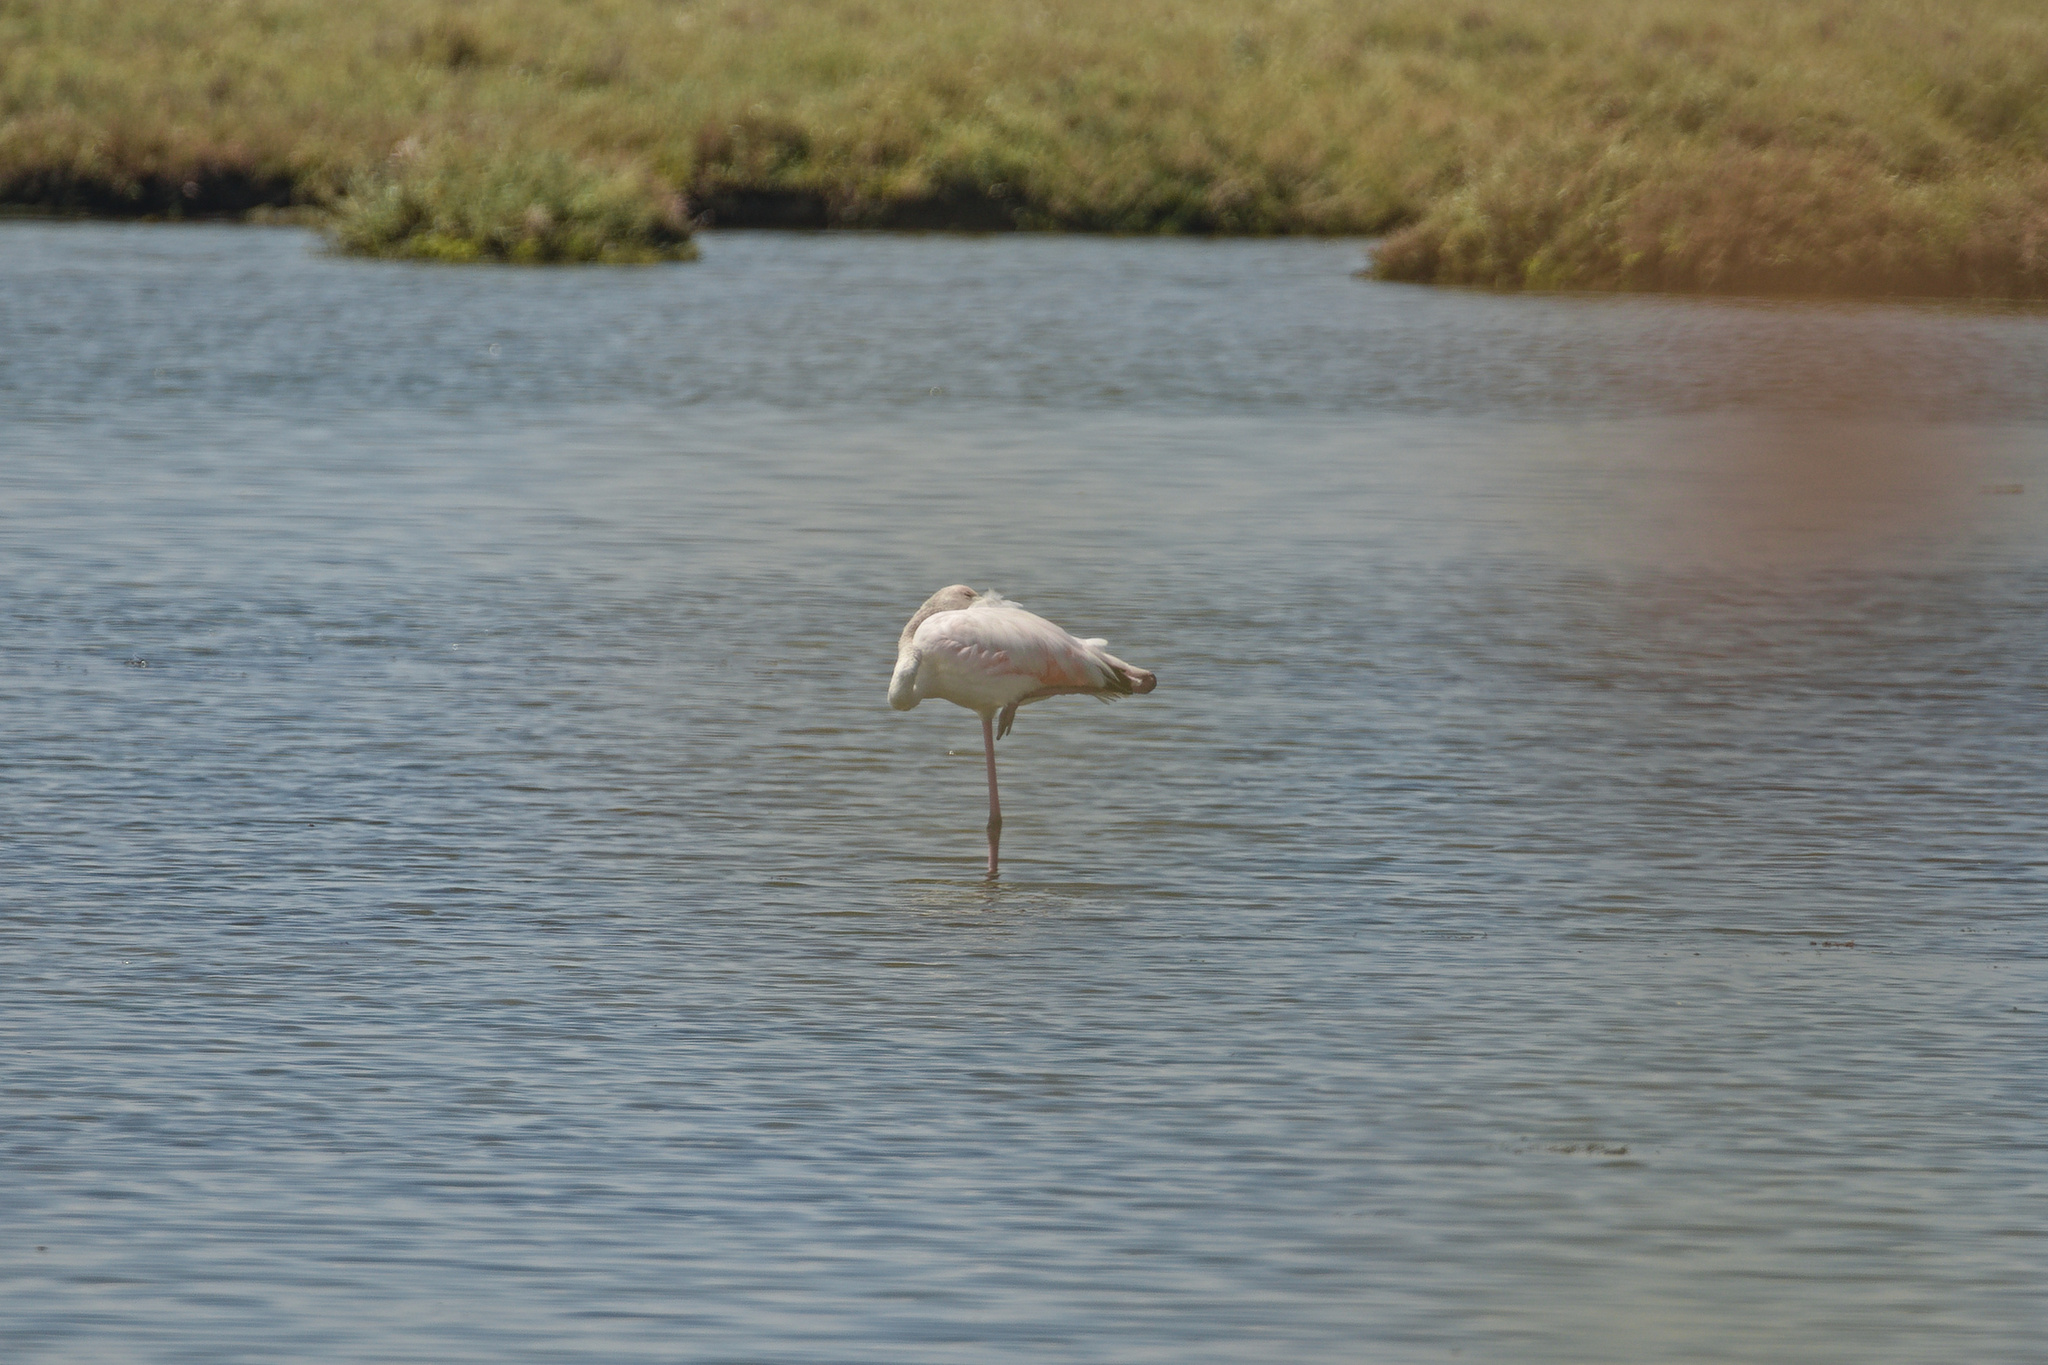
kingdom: Animalia
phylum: Chordata
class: Aves
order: Phoenicopteriformes
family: Phoenicopteridae
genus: Phoenicopterus
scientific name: Phoenicopterus roseus
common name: Greater flamingo
